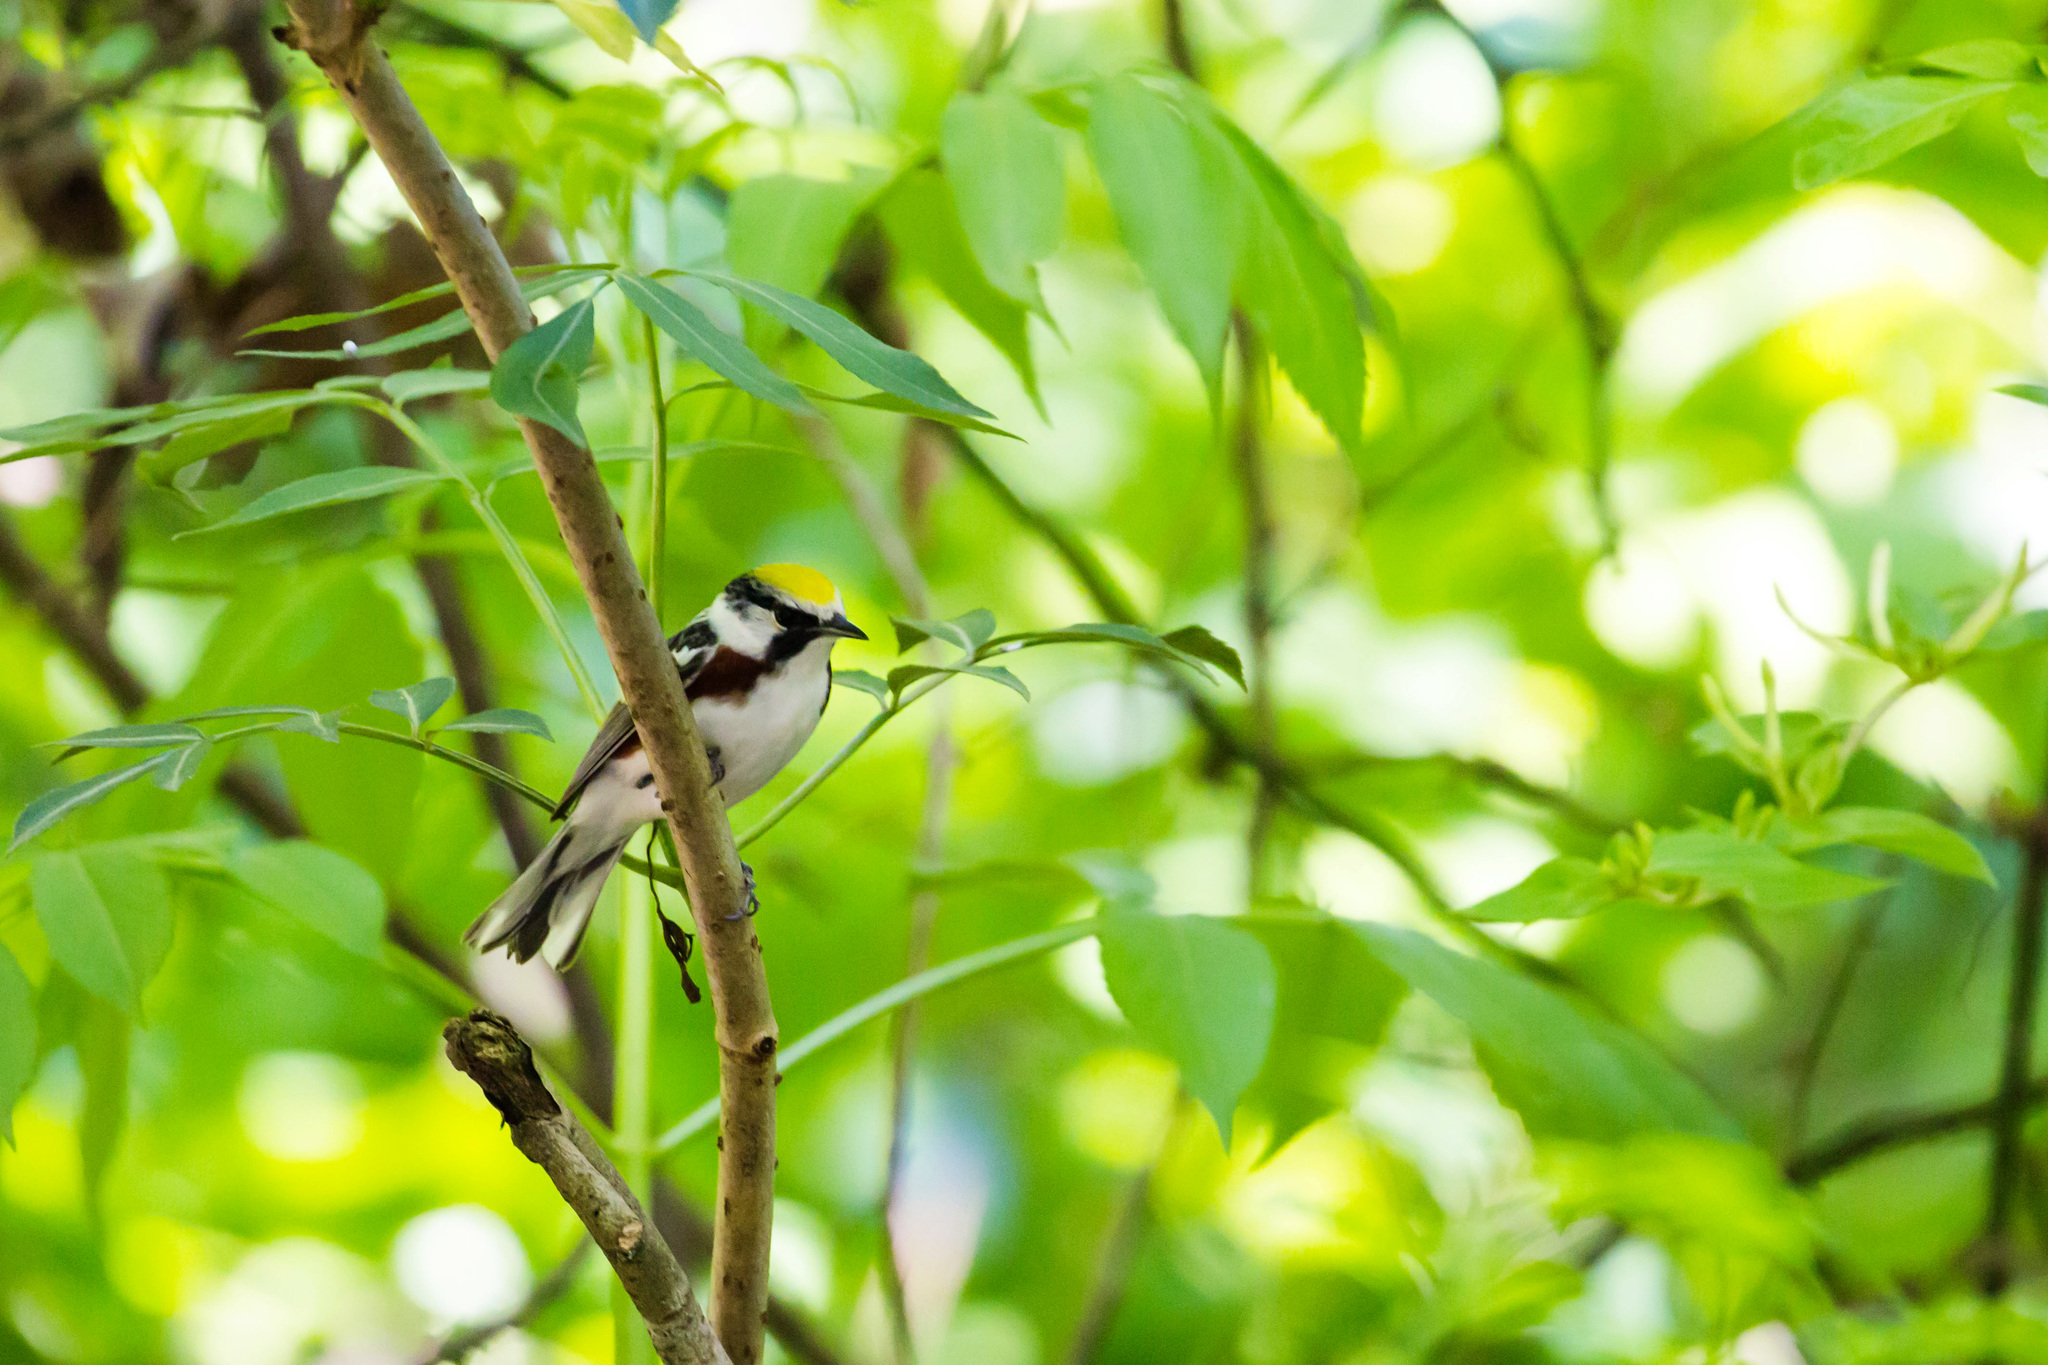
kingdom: Animalia
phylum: Chordata
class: Aves
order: Passeriformes
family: Parulidae
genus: Setophaga
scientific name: Setophaga pensylvanica
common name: Chestnut-sided warbler
